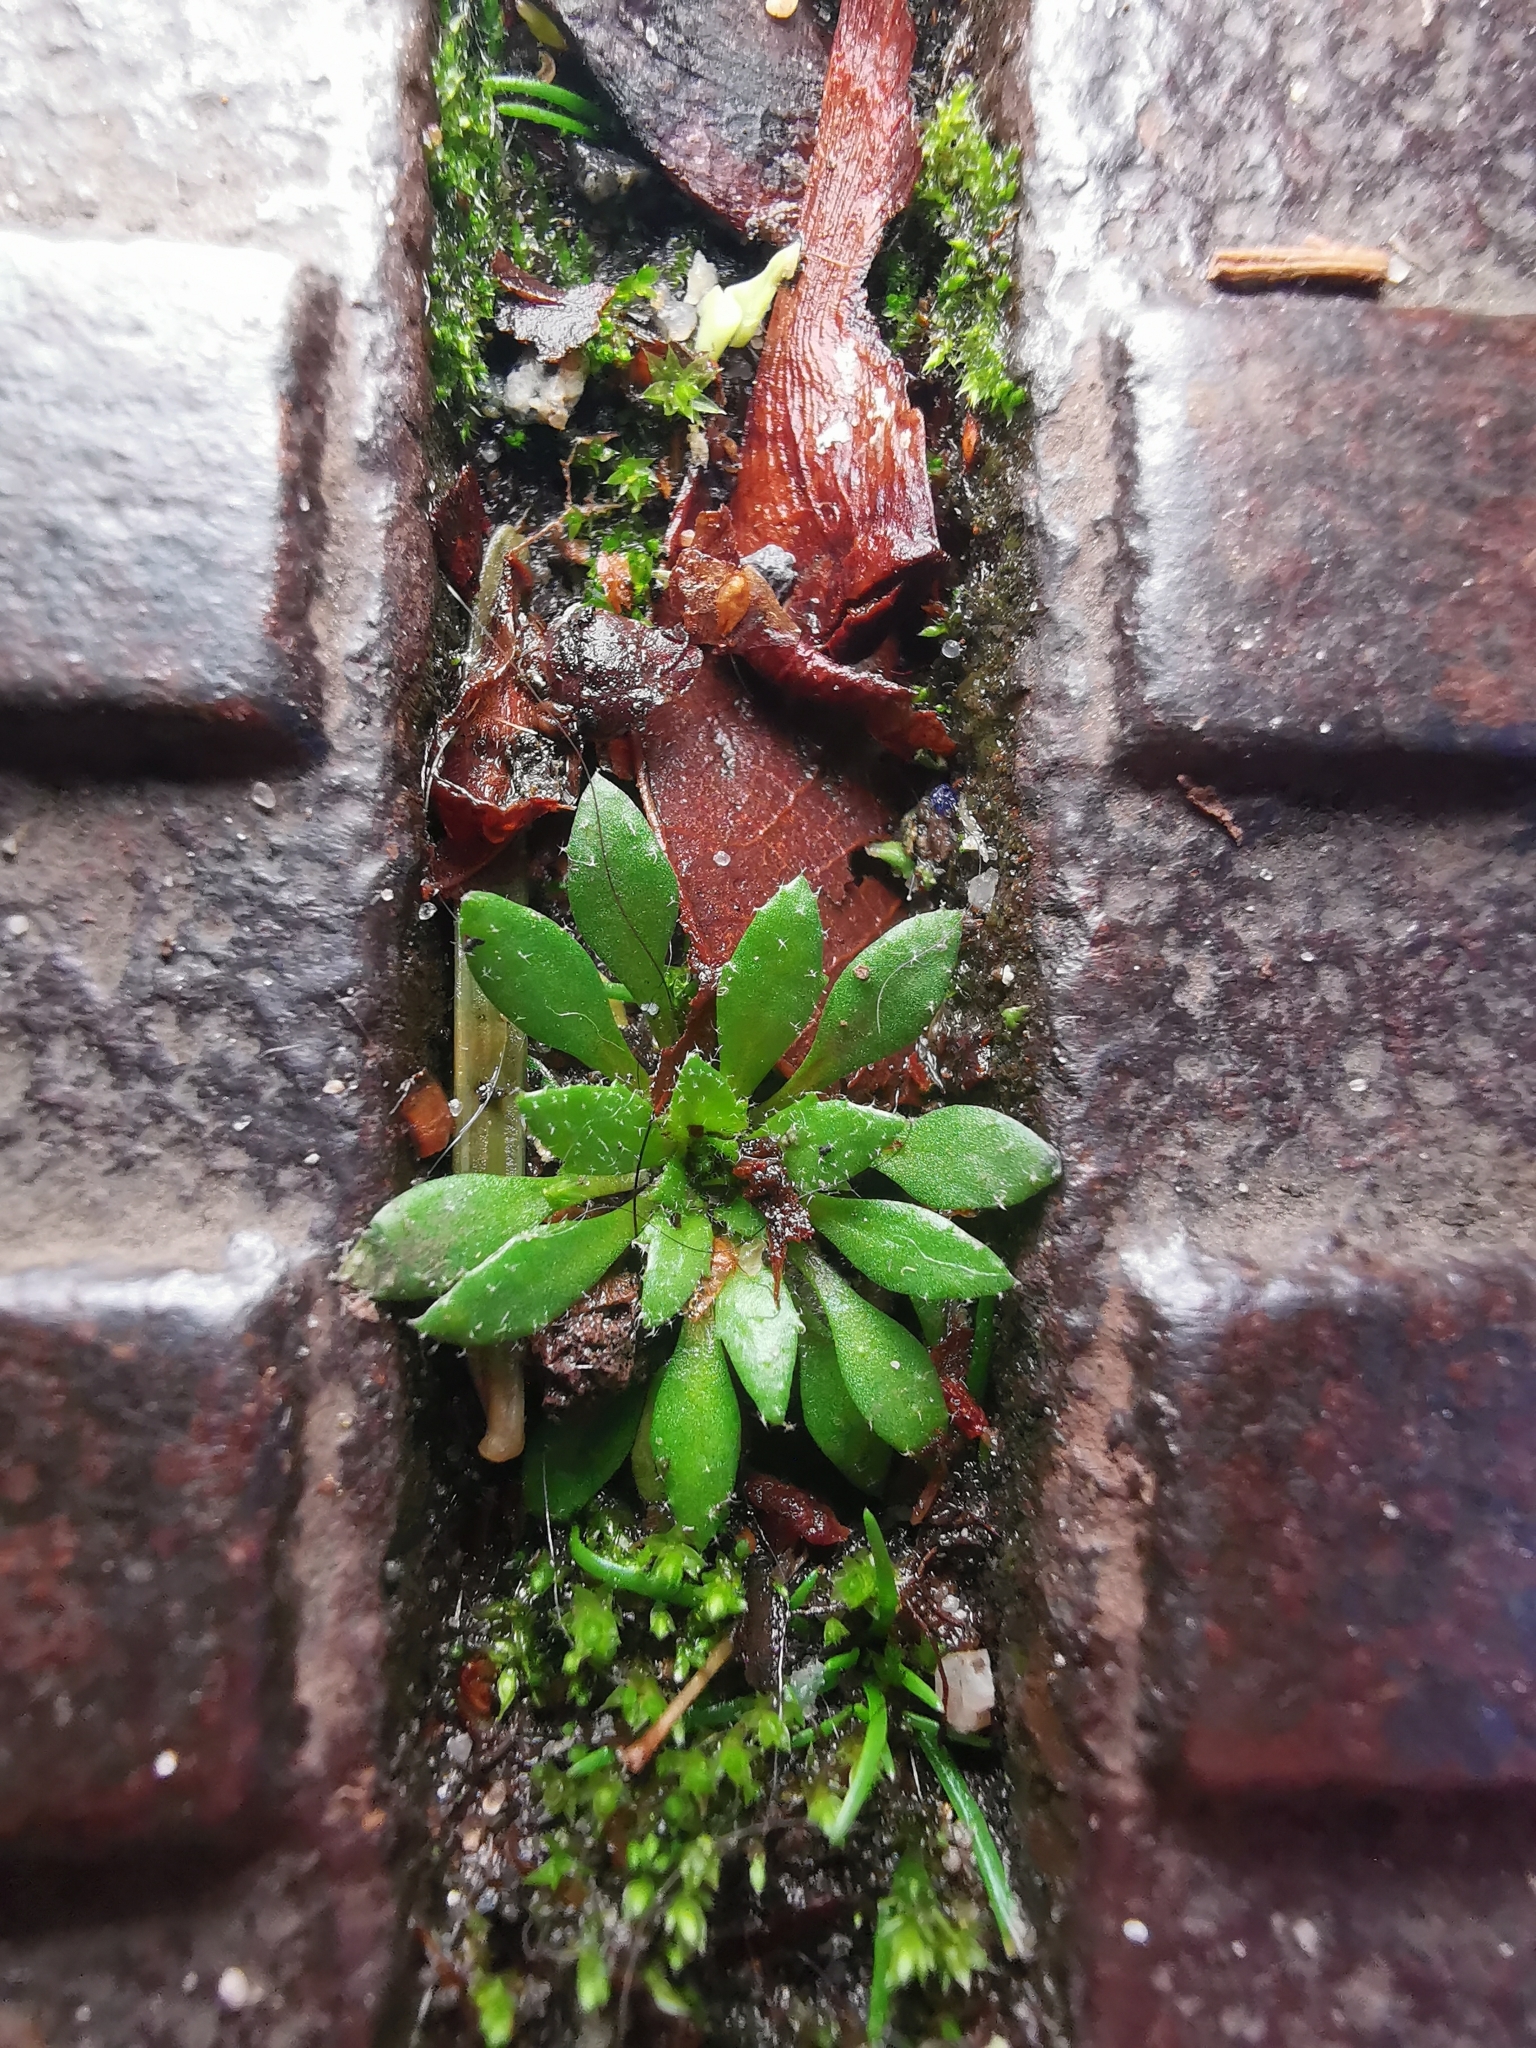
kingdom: Plantae
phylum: Tracheophyta
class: Magnoliopsida
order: Brassicales
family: Brassicaceae
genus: Draba
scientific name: Draba verna
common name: Spring draba
